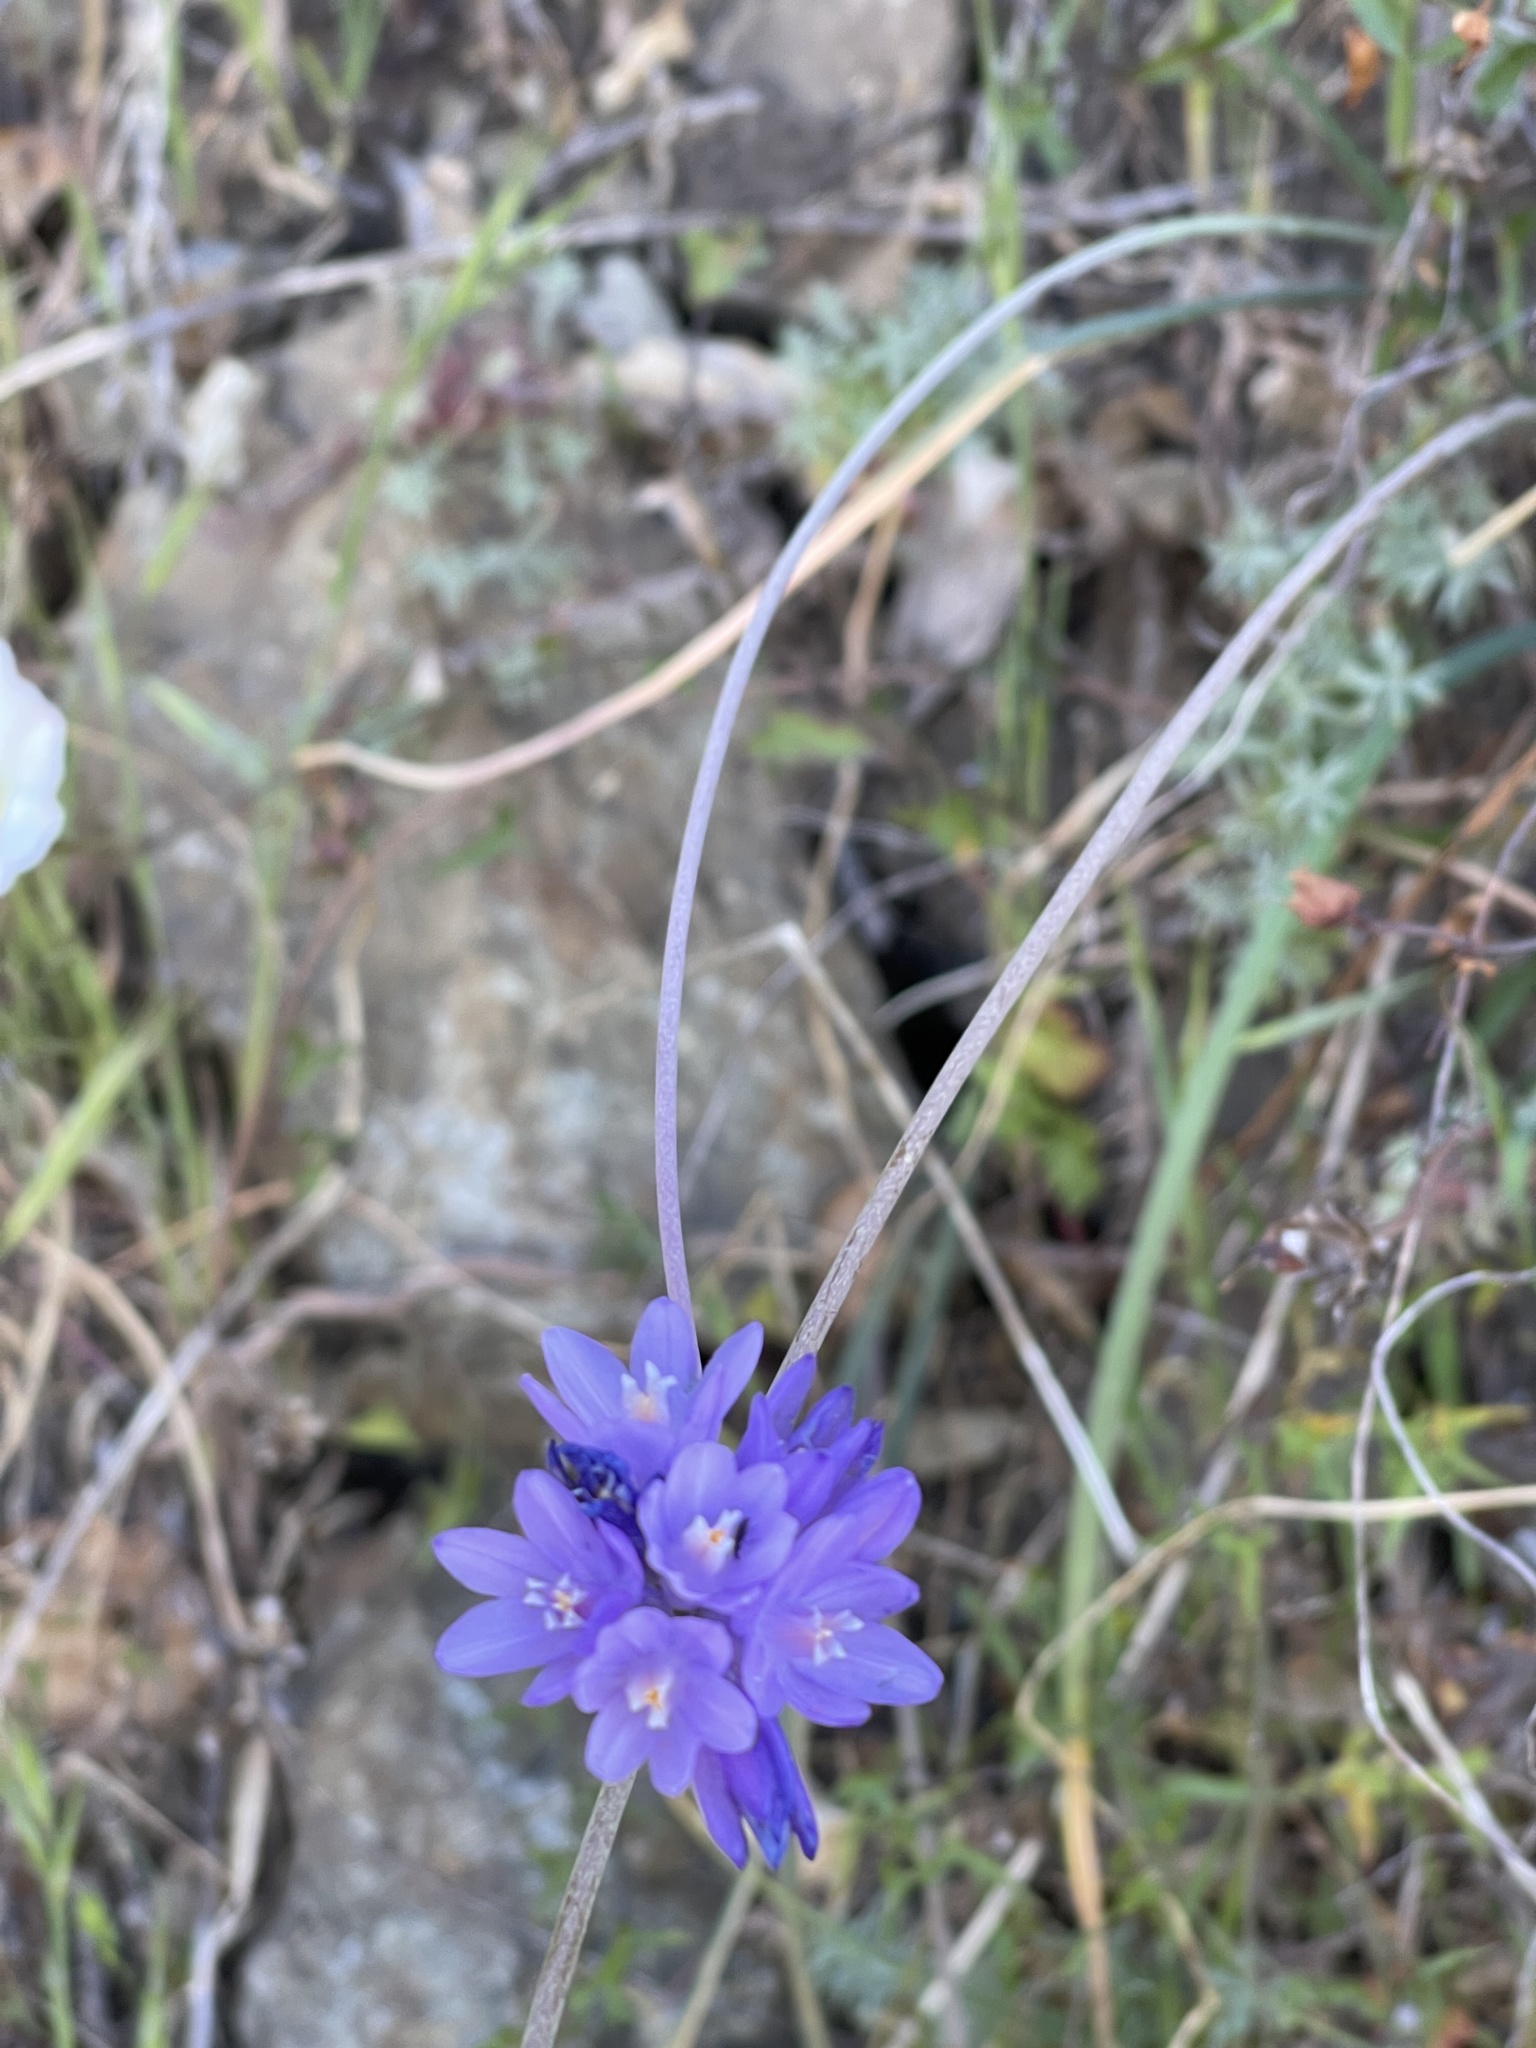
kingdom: Plantae
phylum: Tracheophyta
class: Liliopsida
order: Asparagales
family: Asparagaceae
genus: Dipterostemon
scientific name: Dipterostemon capitatus
